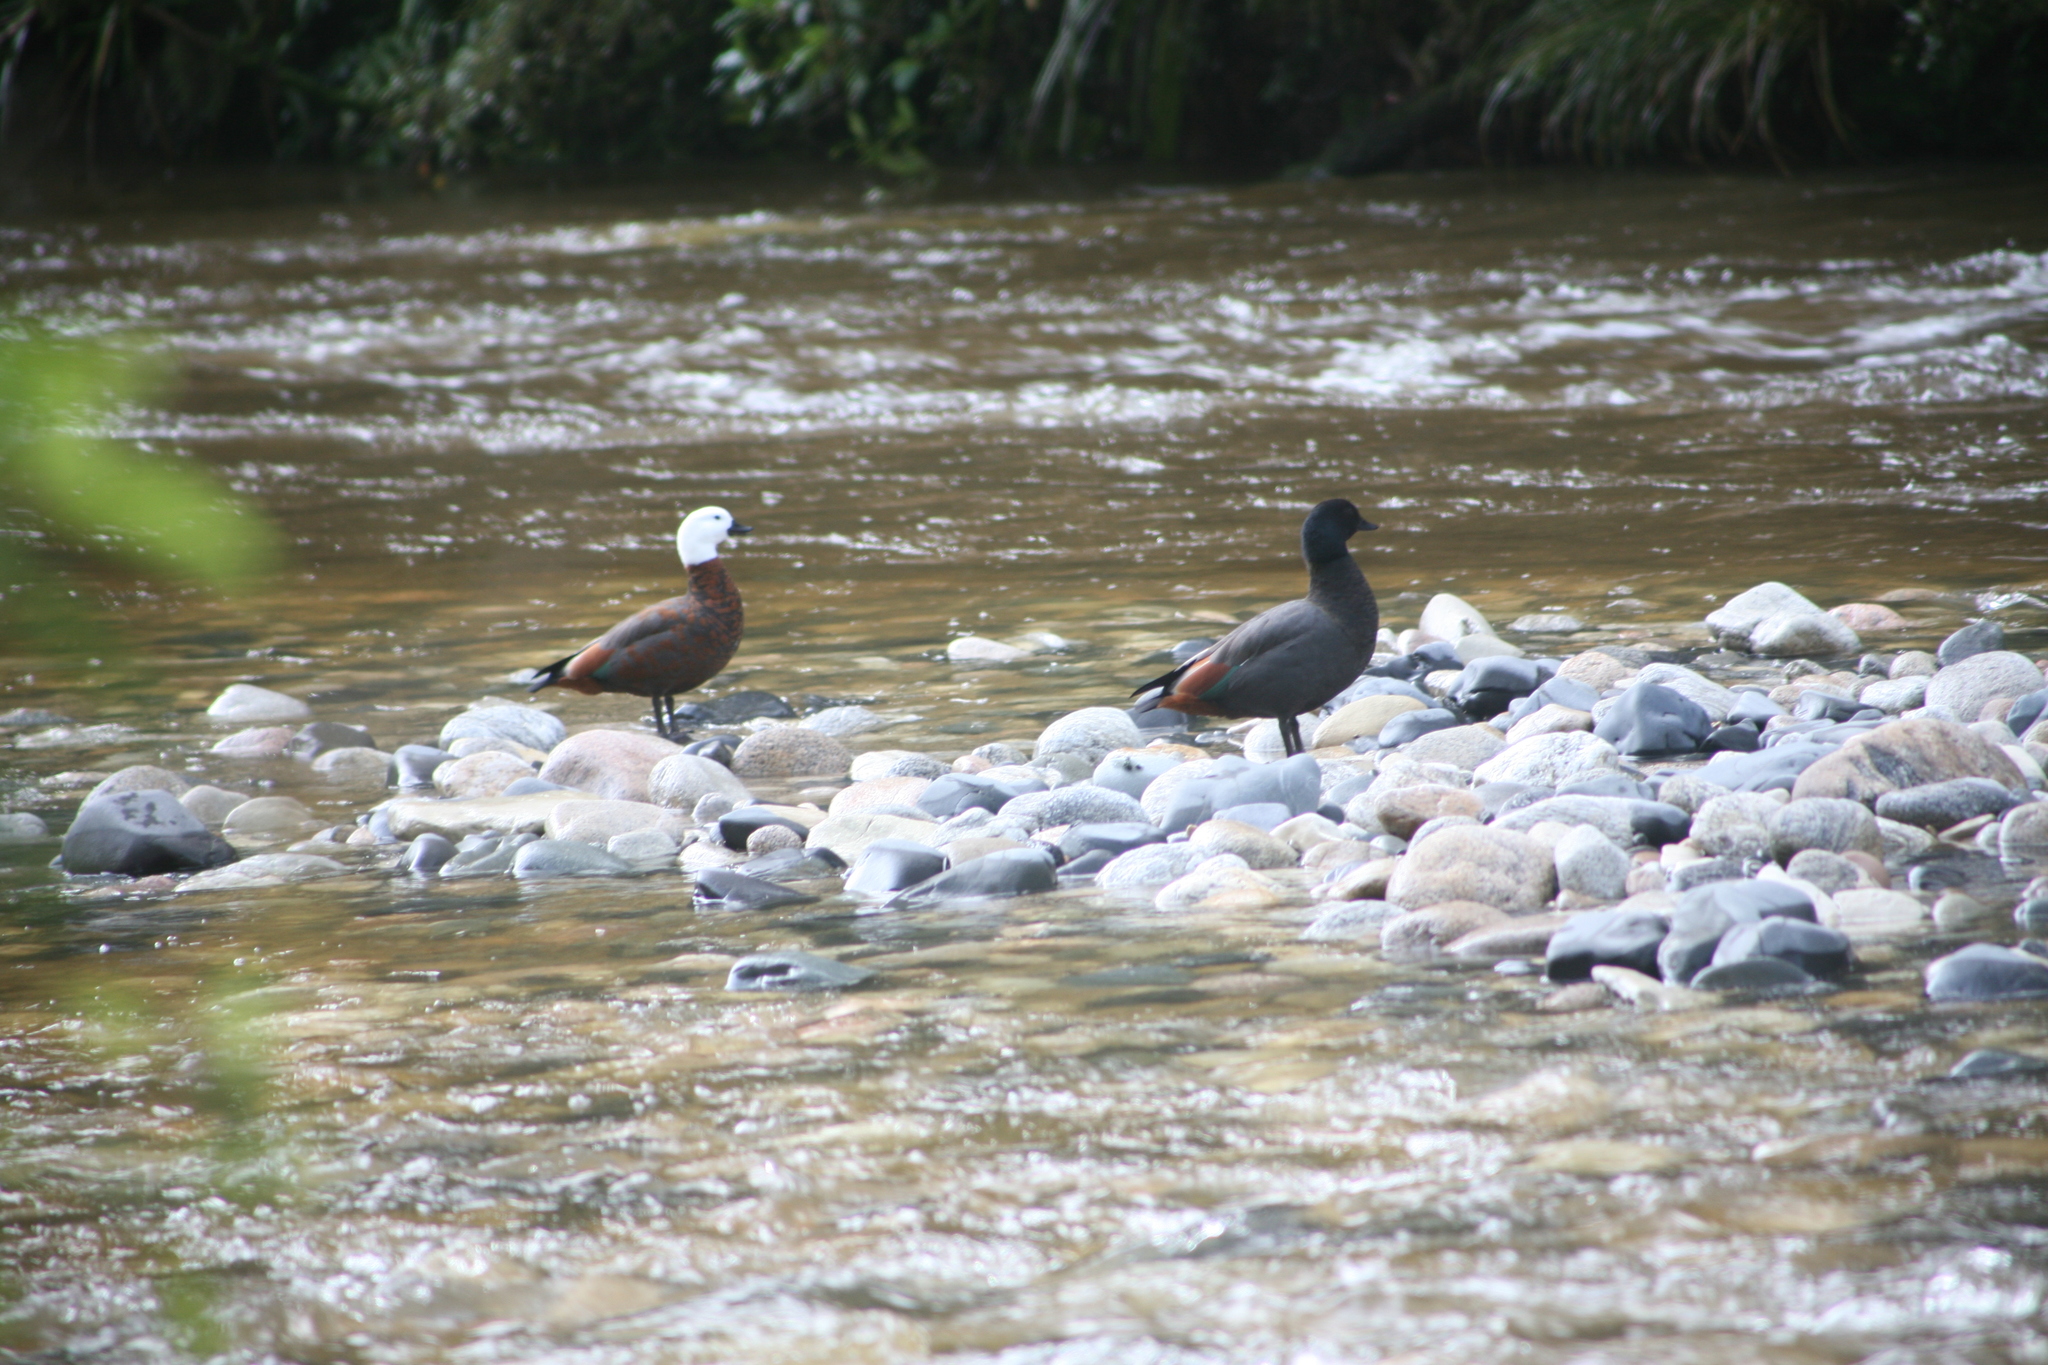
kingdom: Animalia
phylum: Chordata
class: Aves
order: Anseriformes
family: Anatidae
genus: Tadorna
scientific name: Tadorna variegata
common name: Paradise shelduck
